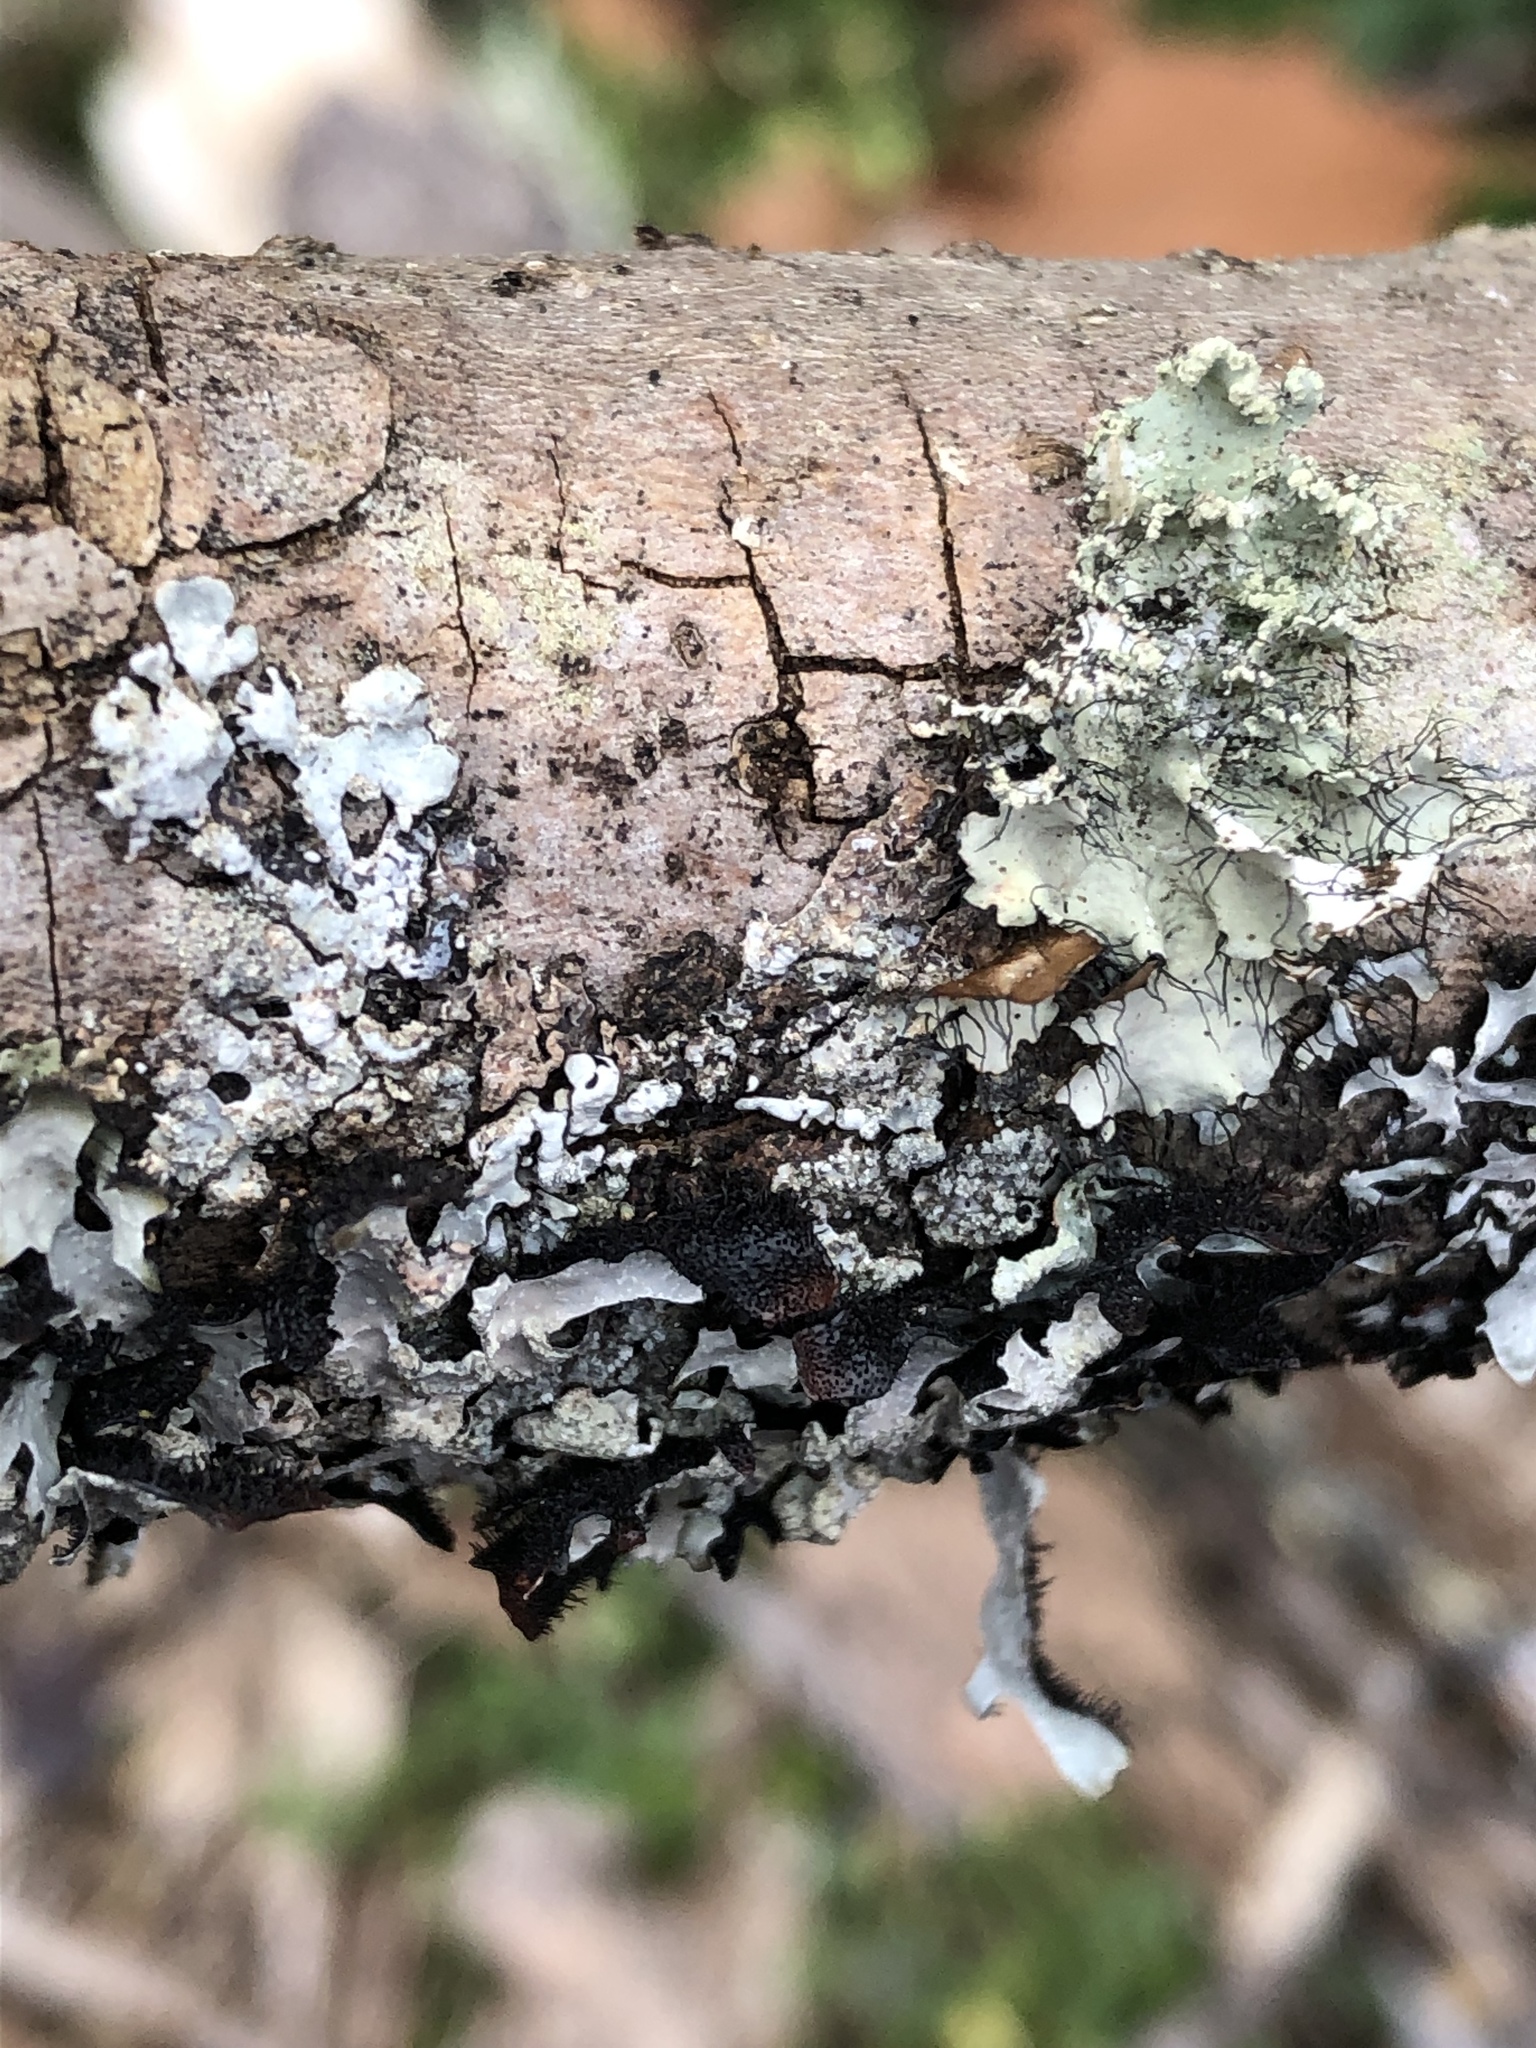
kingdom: Fungi
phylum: Ascomycota
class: Lecanoromycetes
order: Lecanorales
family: Parmeliaceae
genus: Parmelia
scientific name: Parmelia sulcata
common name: Netted shield lichen
